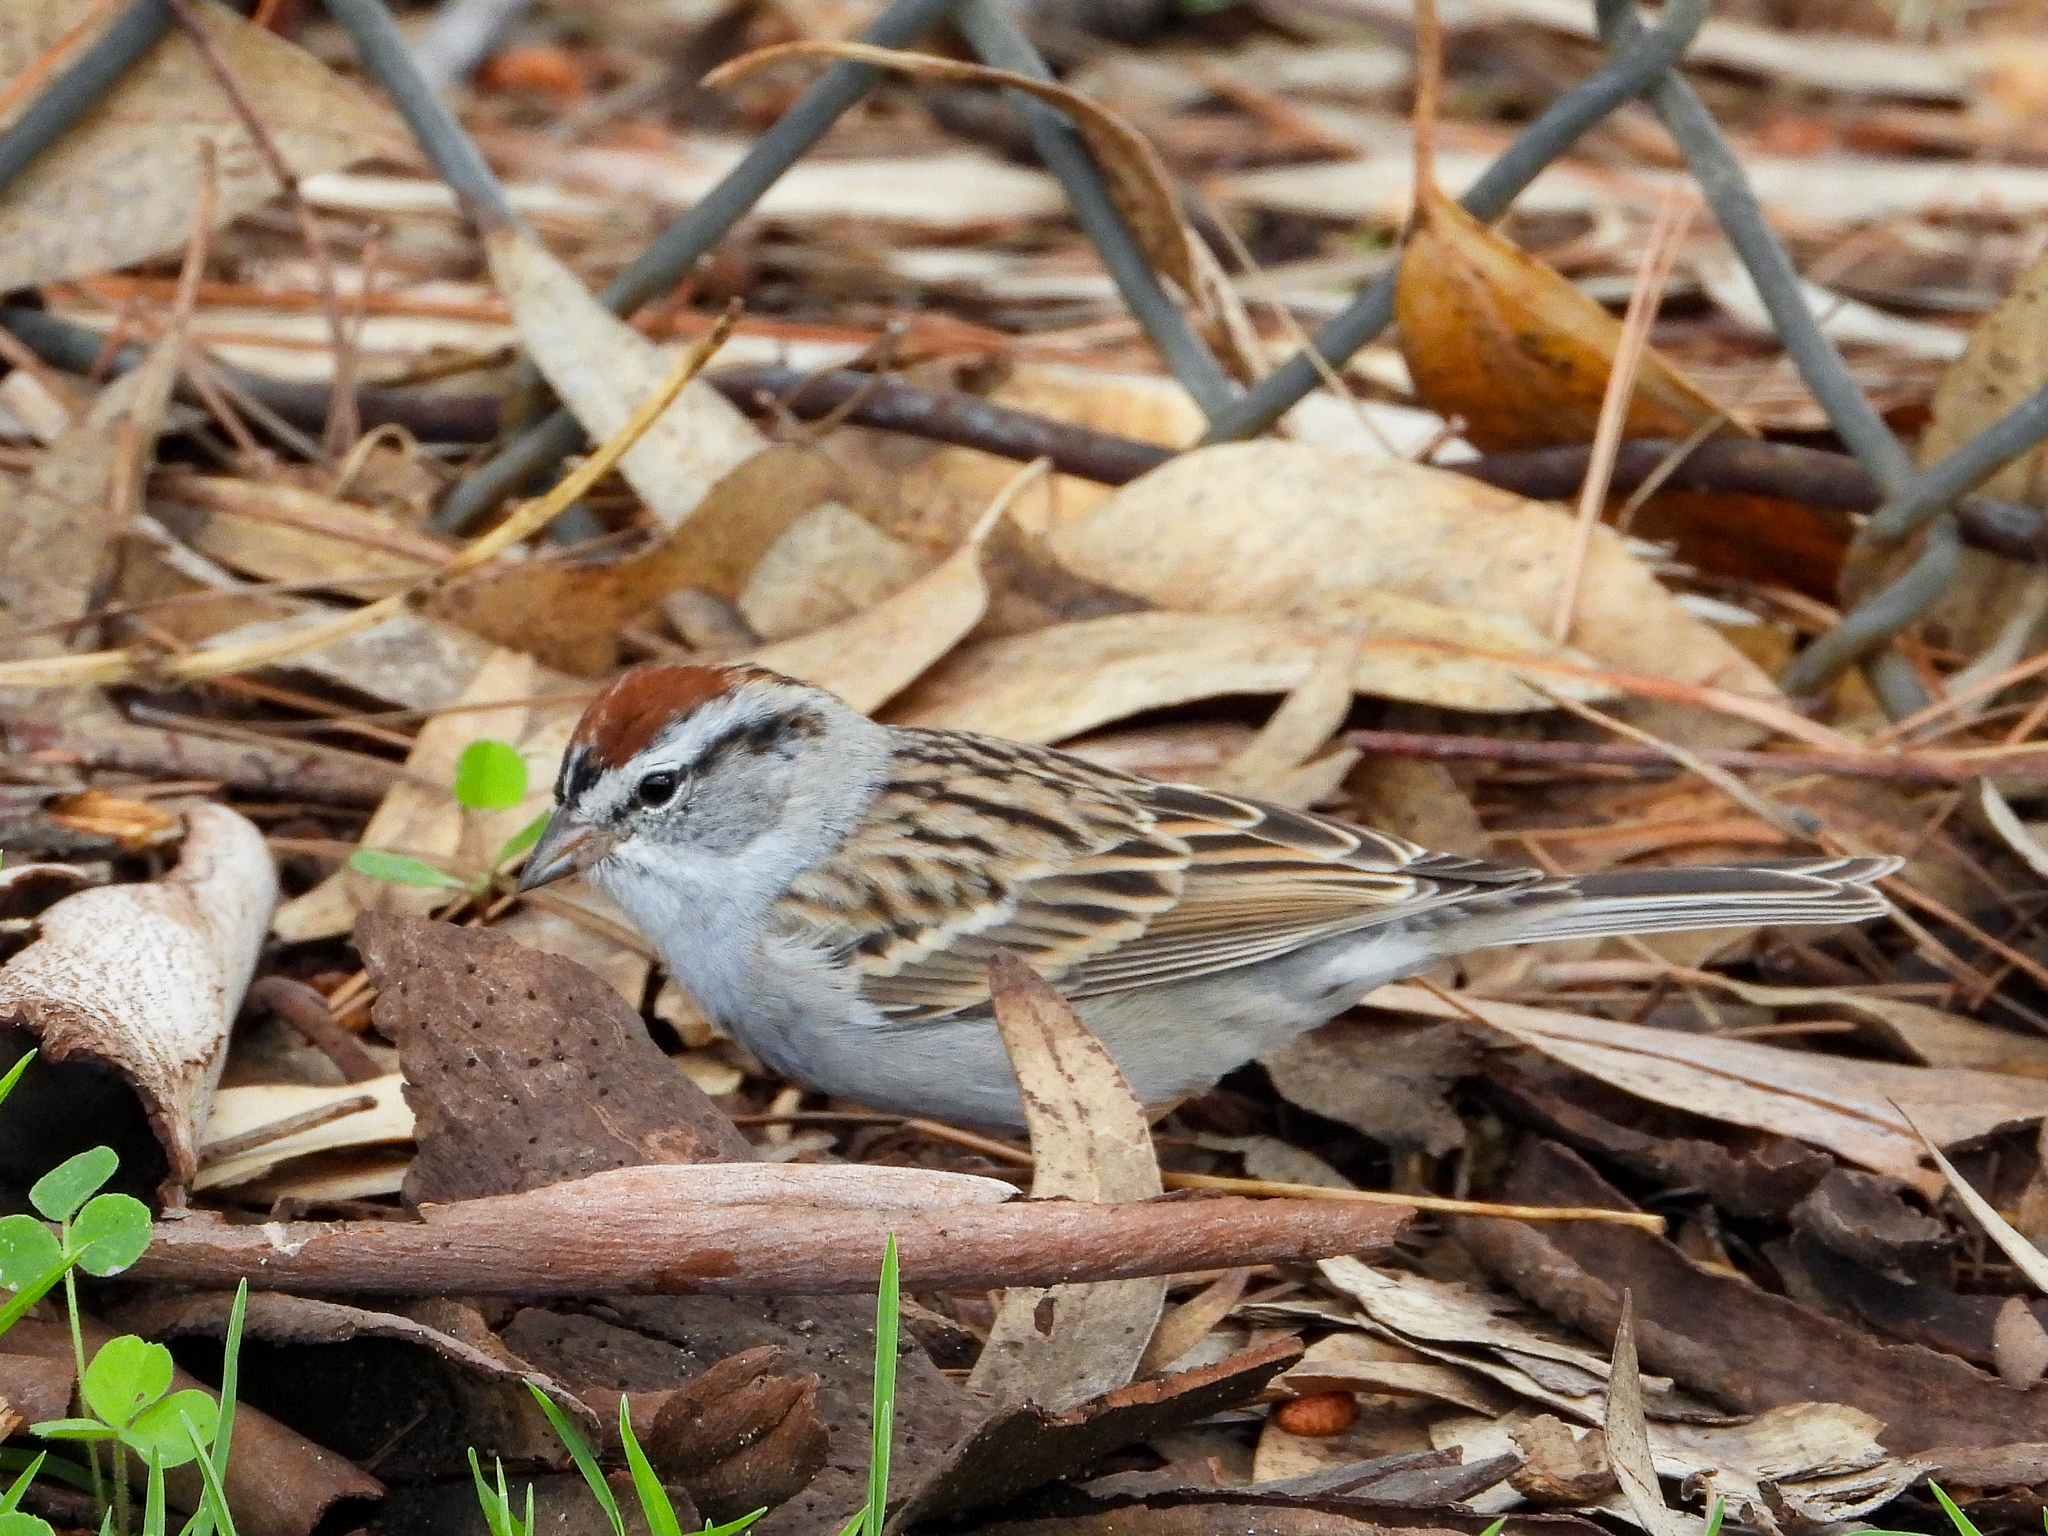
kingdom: Animalia
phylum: Chordata
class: Aves
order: Passeriformes
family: Passerellidae
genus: Spizella
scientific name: Spizella passerina
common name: Chipping sparrow
